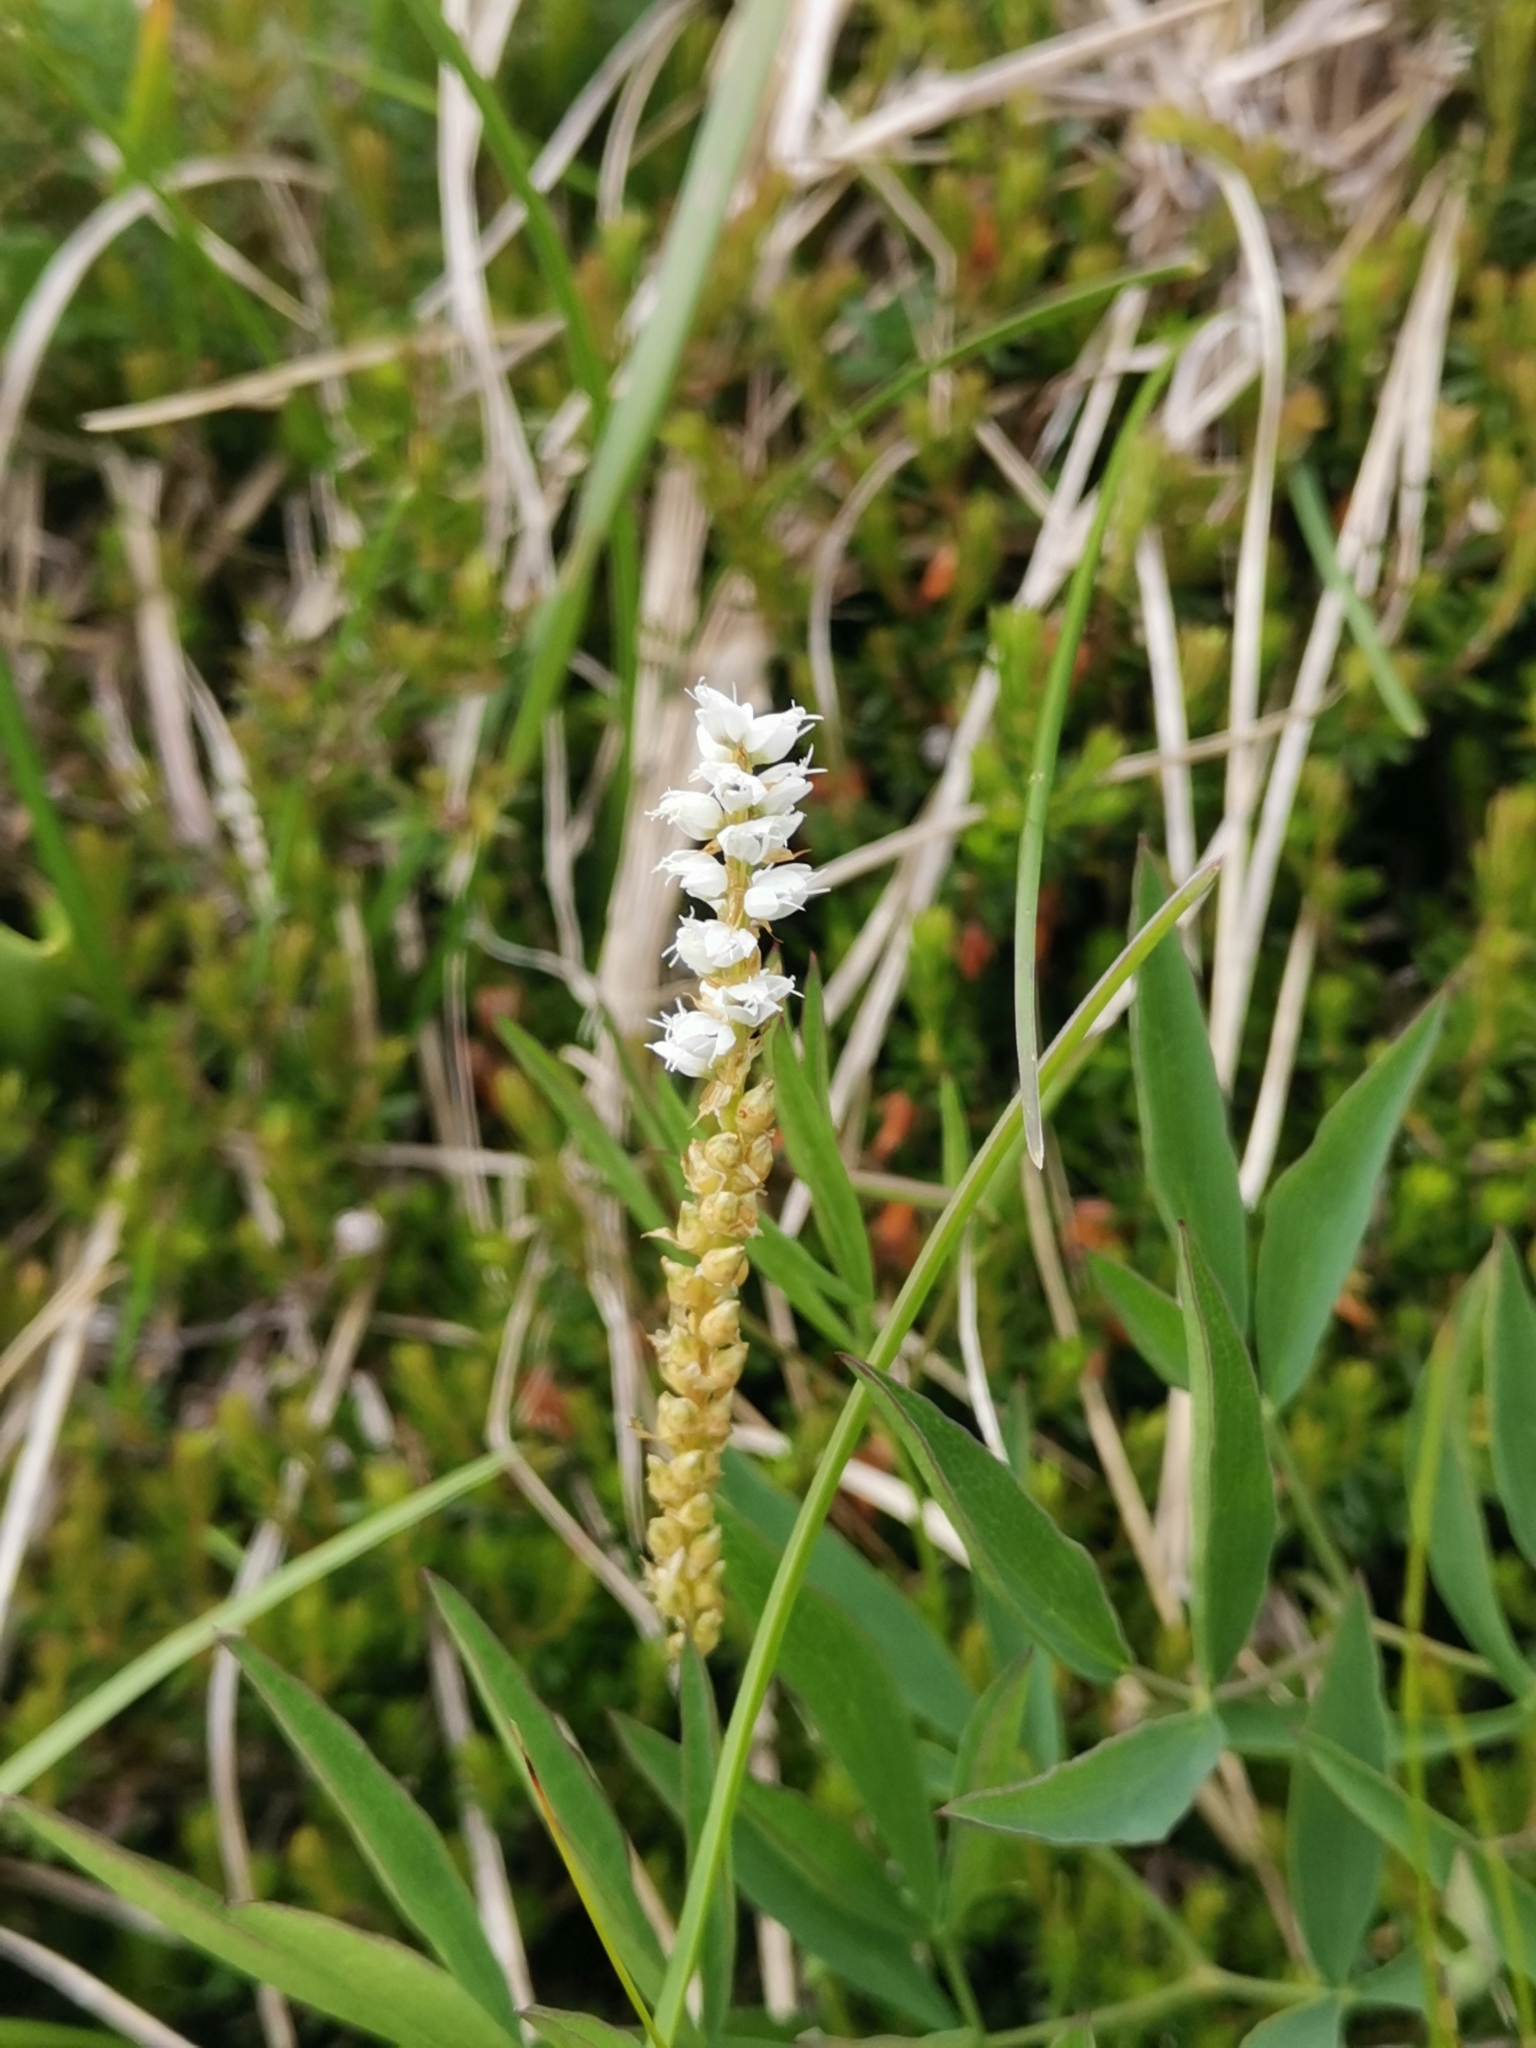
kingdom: Plantae
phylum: Tracheophyta
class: Magnoliopsida
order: Caryophyllales
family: Polygonaceae
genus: Bistorta
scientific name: Bistorta vivipara
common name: Alpine bistort
